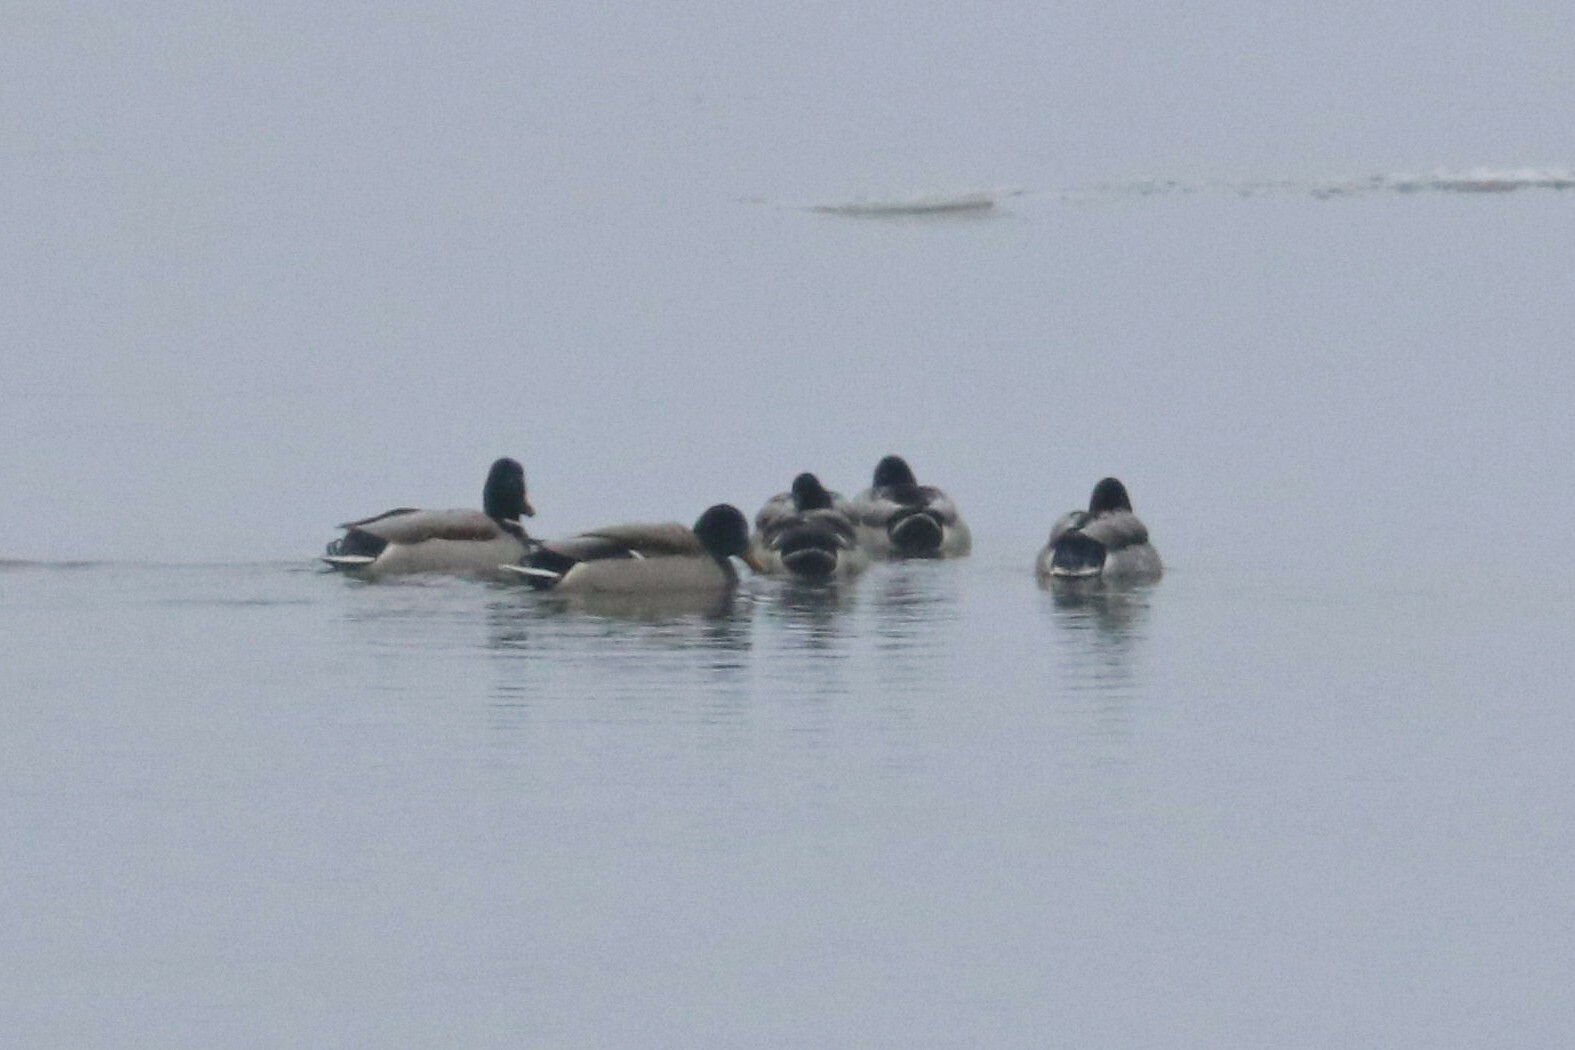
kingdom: Animalia
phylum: Chordata
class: Aves
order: Anseriformes
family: Anatidae
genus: Anas
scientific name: Anas platyrhynchos
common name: Mallard
